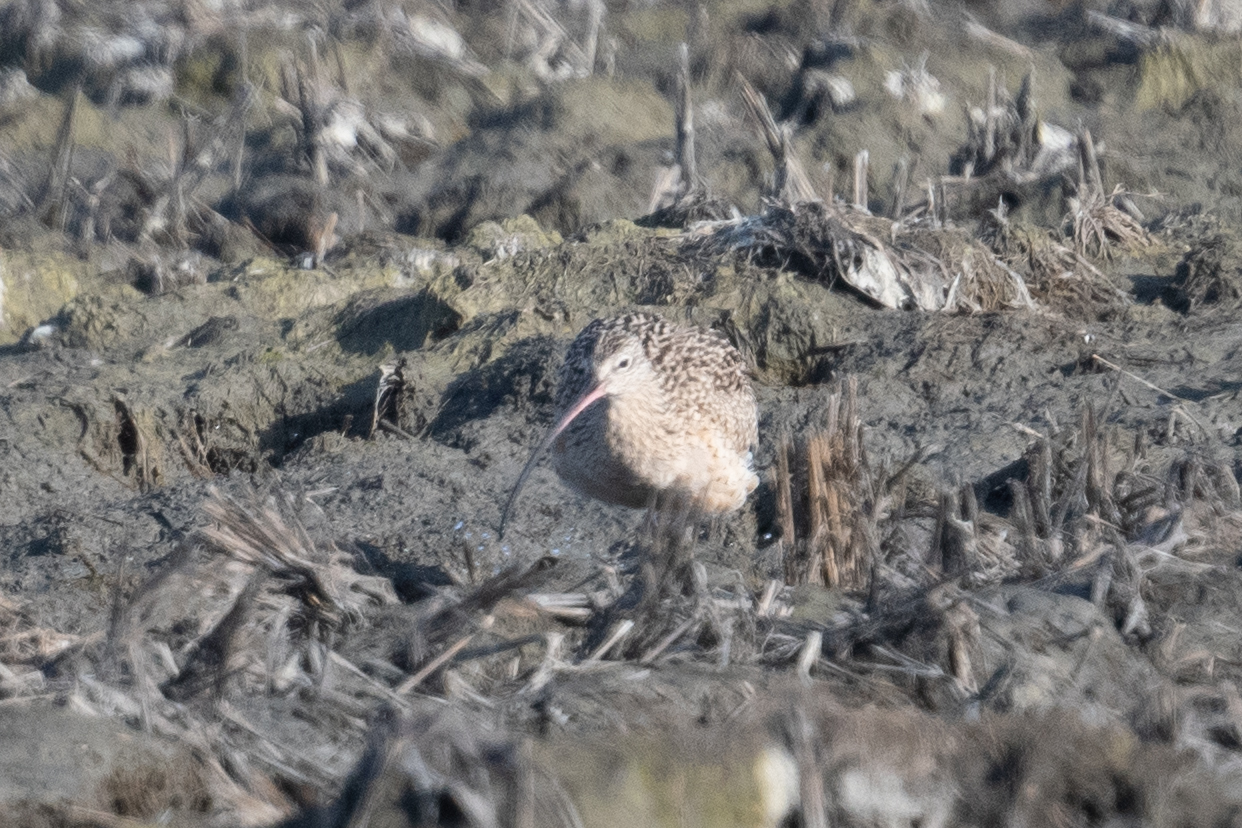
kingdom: Animalia
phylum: Chordata
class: Aves
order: Charadriiformes
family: Scolopacidae
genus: Numenius
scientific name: Numenius americanus
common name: Long-billed curlew
